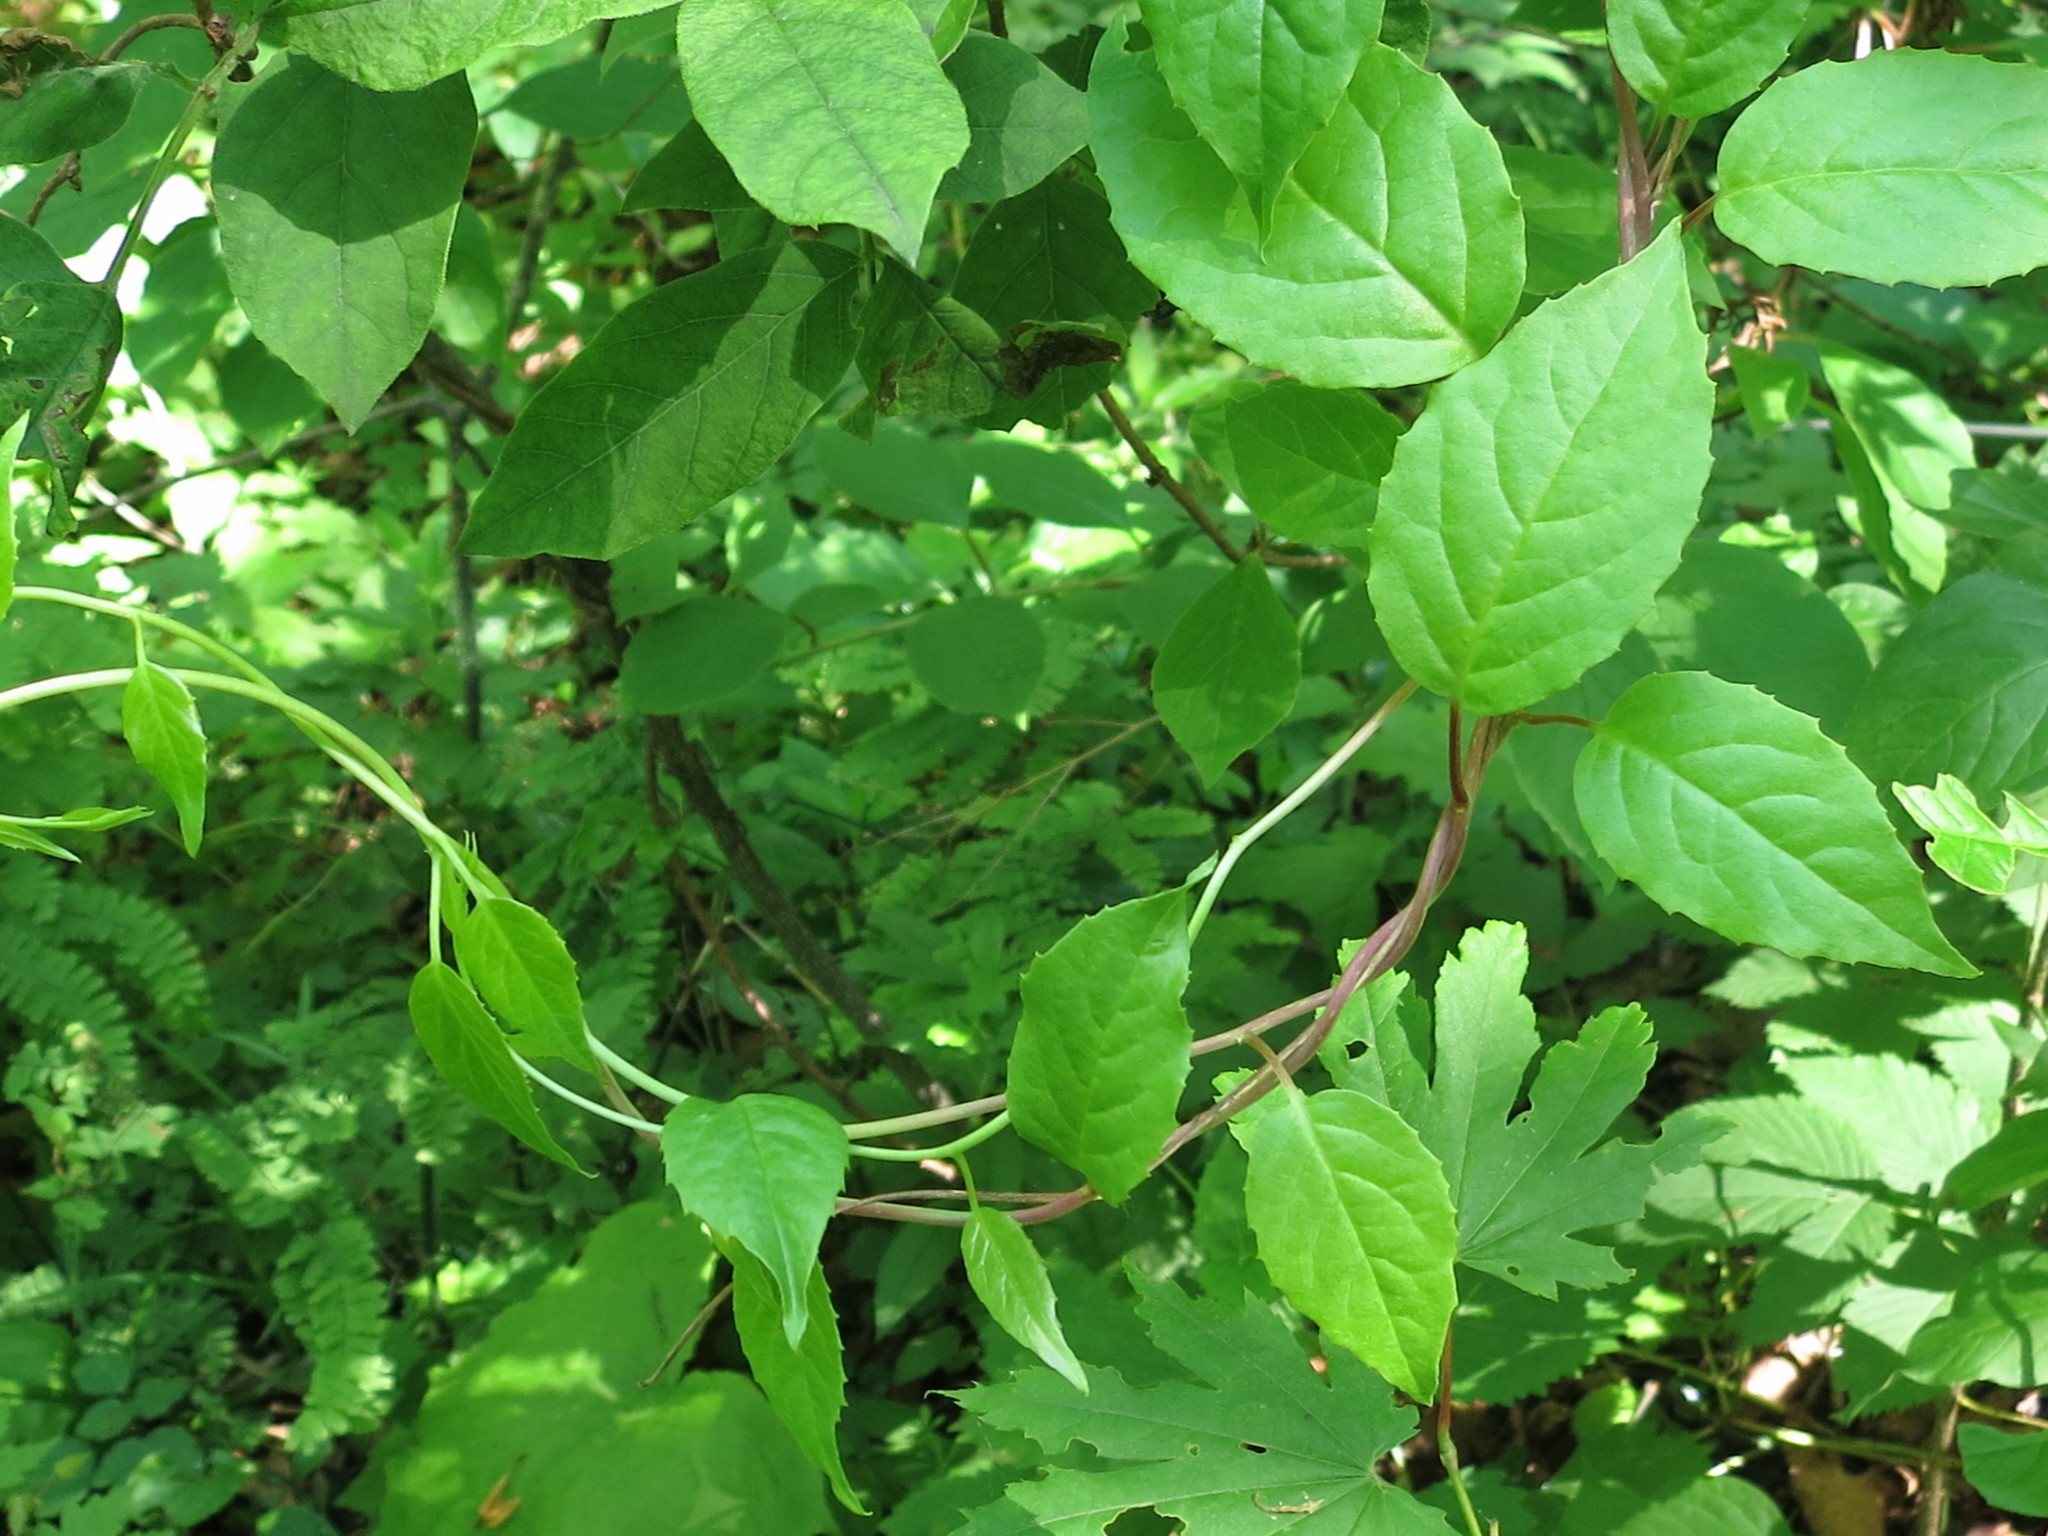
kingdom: Plantae
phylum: Tracheophyta
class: Magnoliopsida
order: Austrobaileyales
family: Schisandraceae
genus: Schisandra
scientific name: Schisandra chinensis
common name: Magnolia-vine
